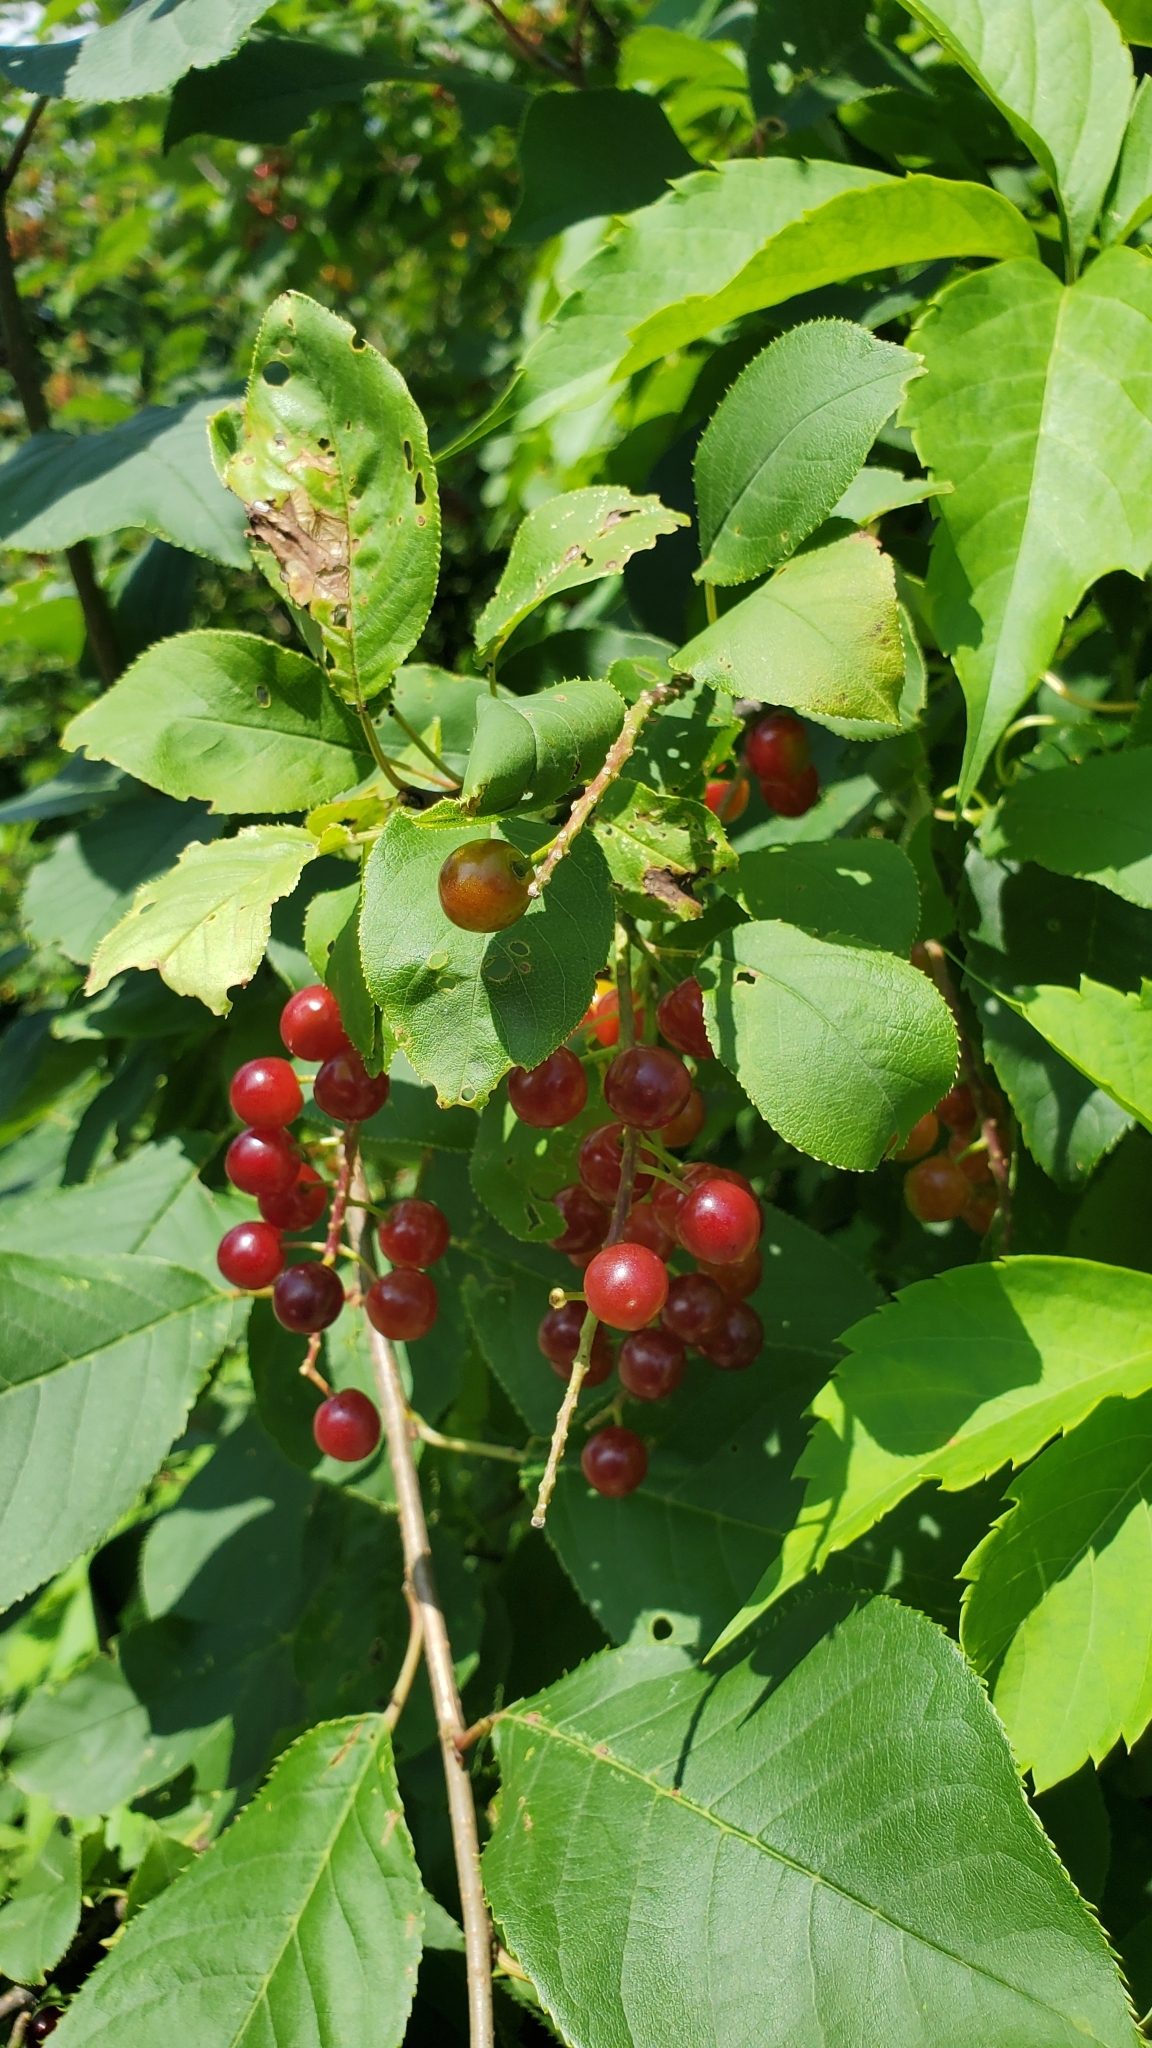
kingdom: Plantae
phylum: Tracheophyta
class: Magnoliopsida
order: Rosales
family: Rosaceae
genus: Prunus
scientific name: Prunus virginiana
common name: Chokecherry
